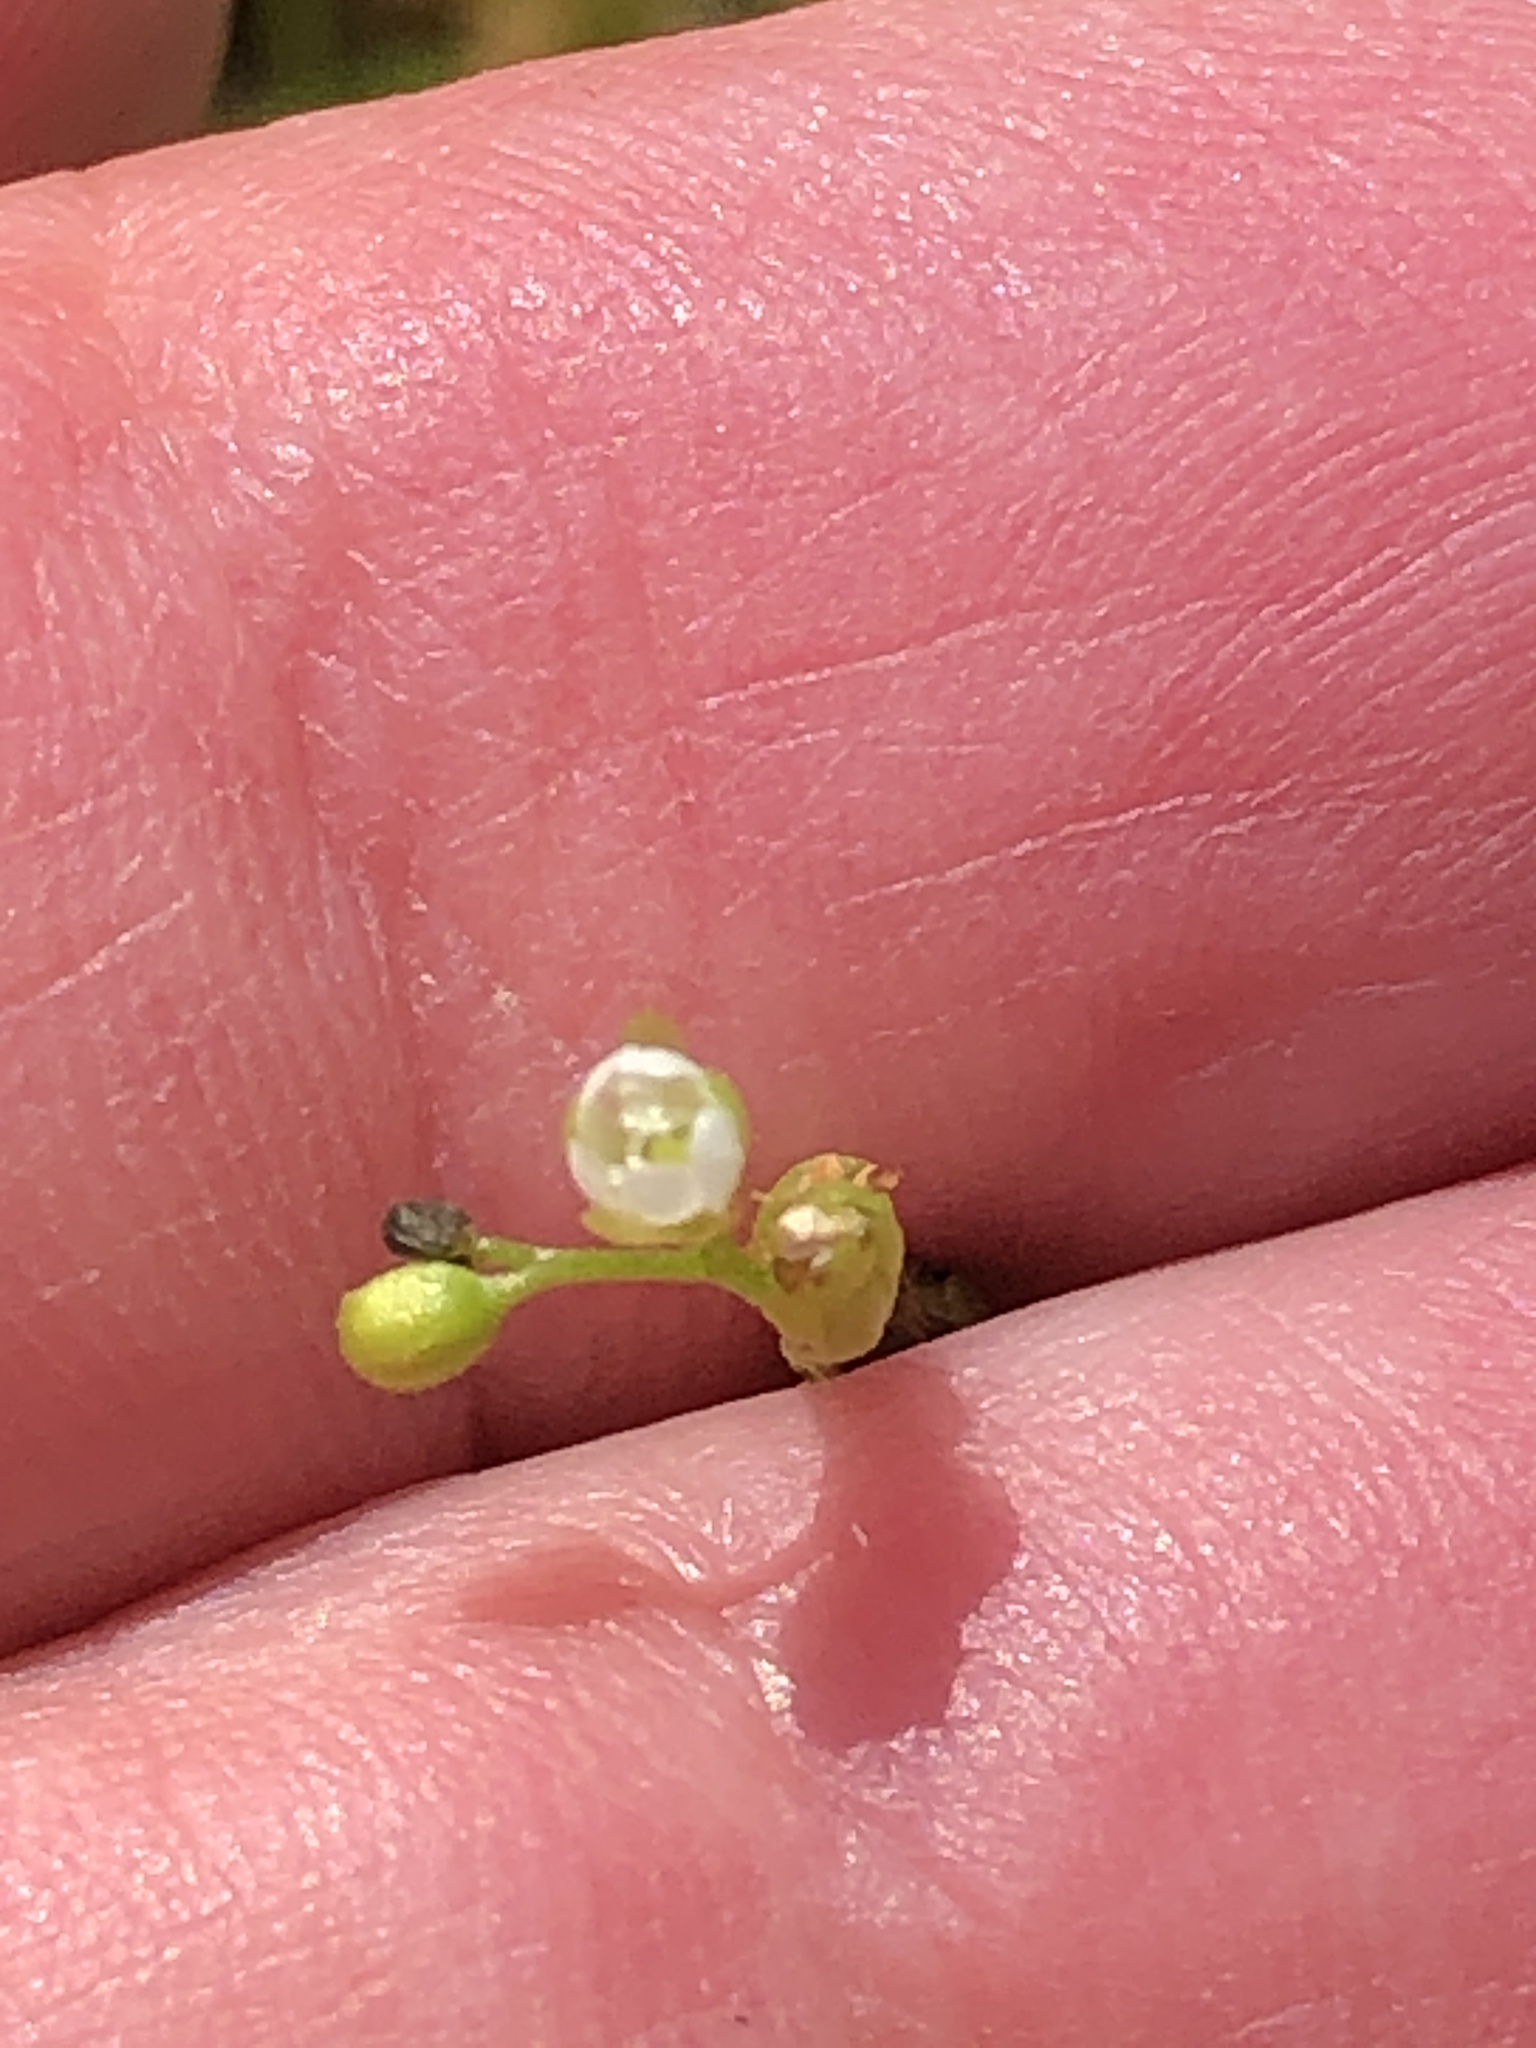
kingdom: Plantae
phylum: Tracheophyta
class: Magnoliopsida
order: Caryophyllales
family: Droseraceae
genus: Drosera
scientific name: Drosera rotundifolia
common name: Round-leaved sundew
